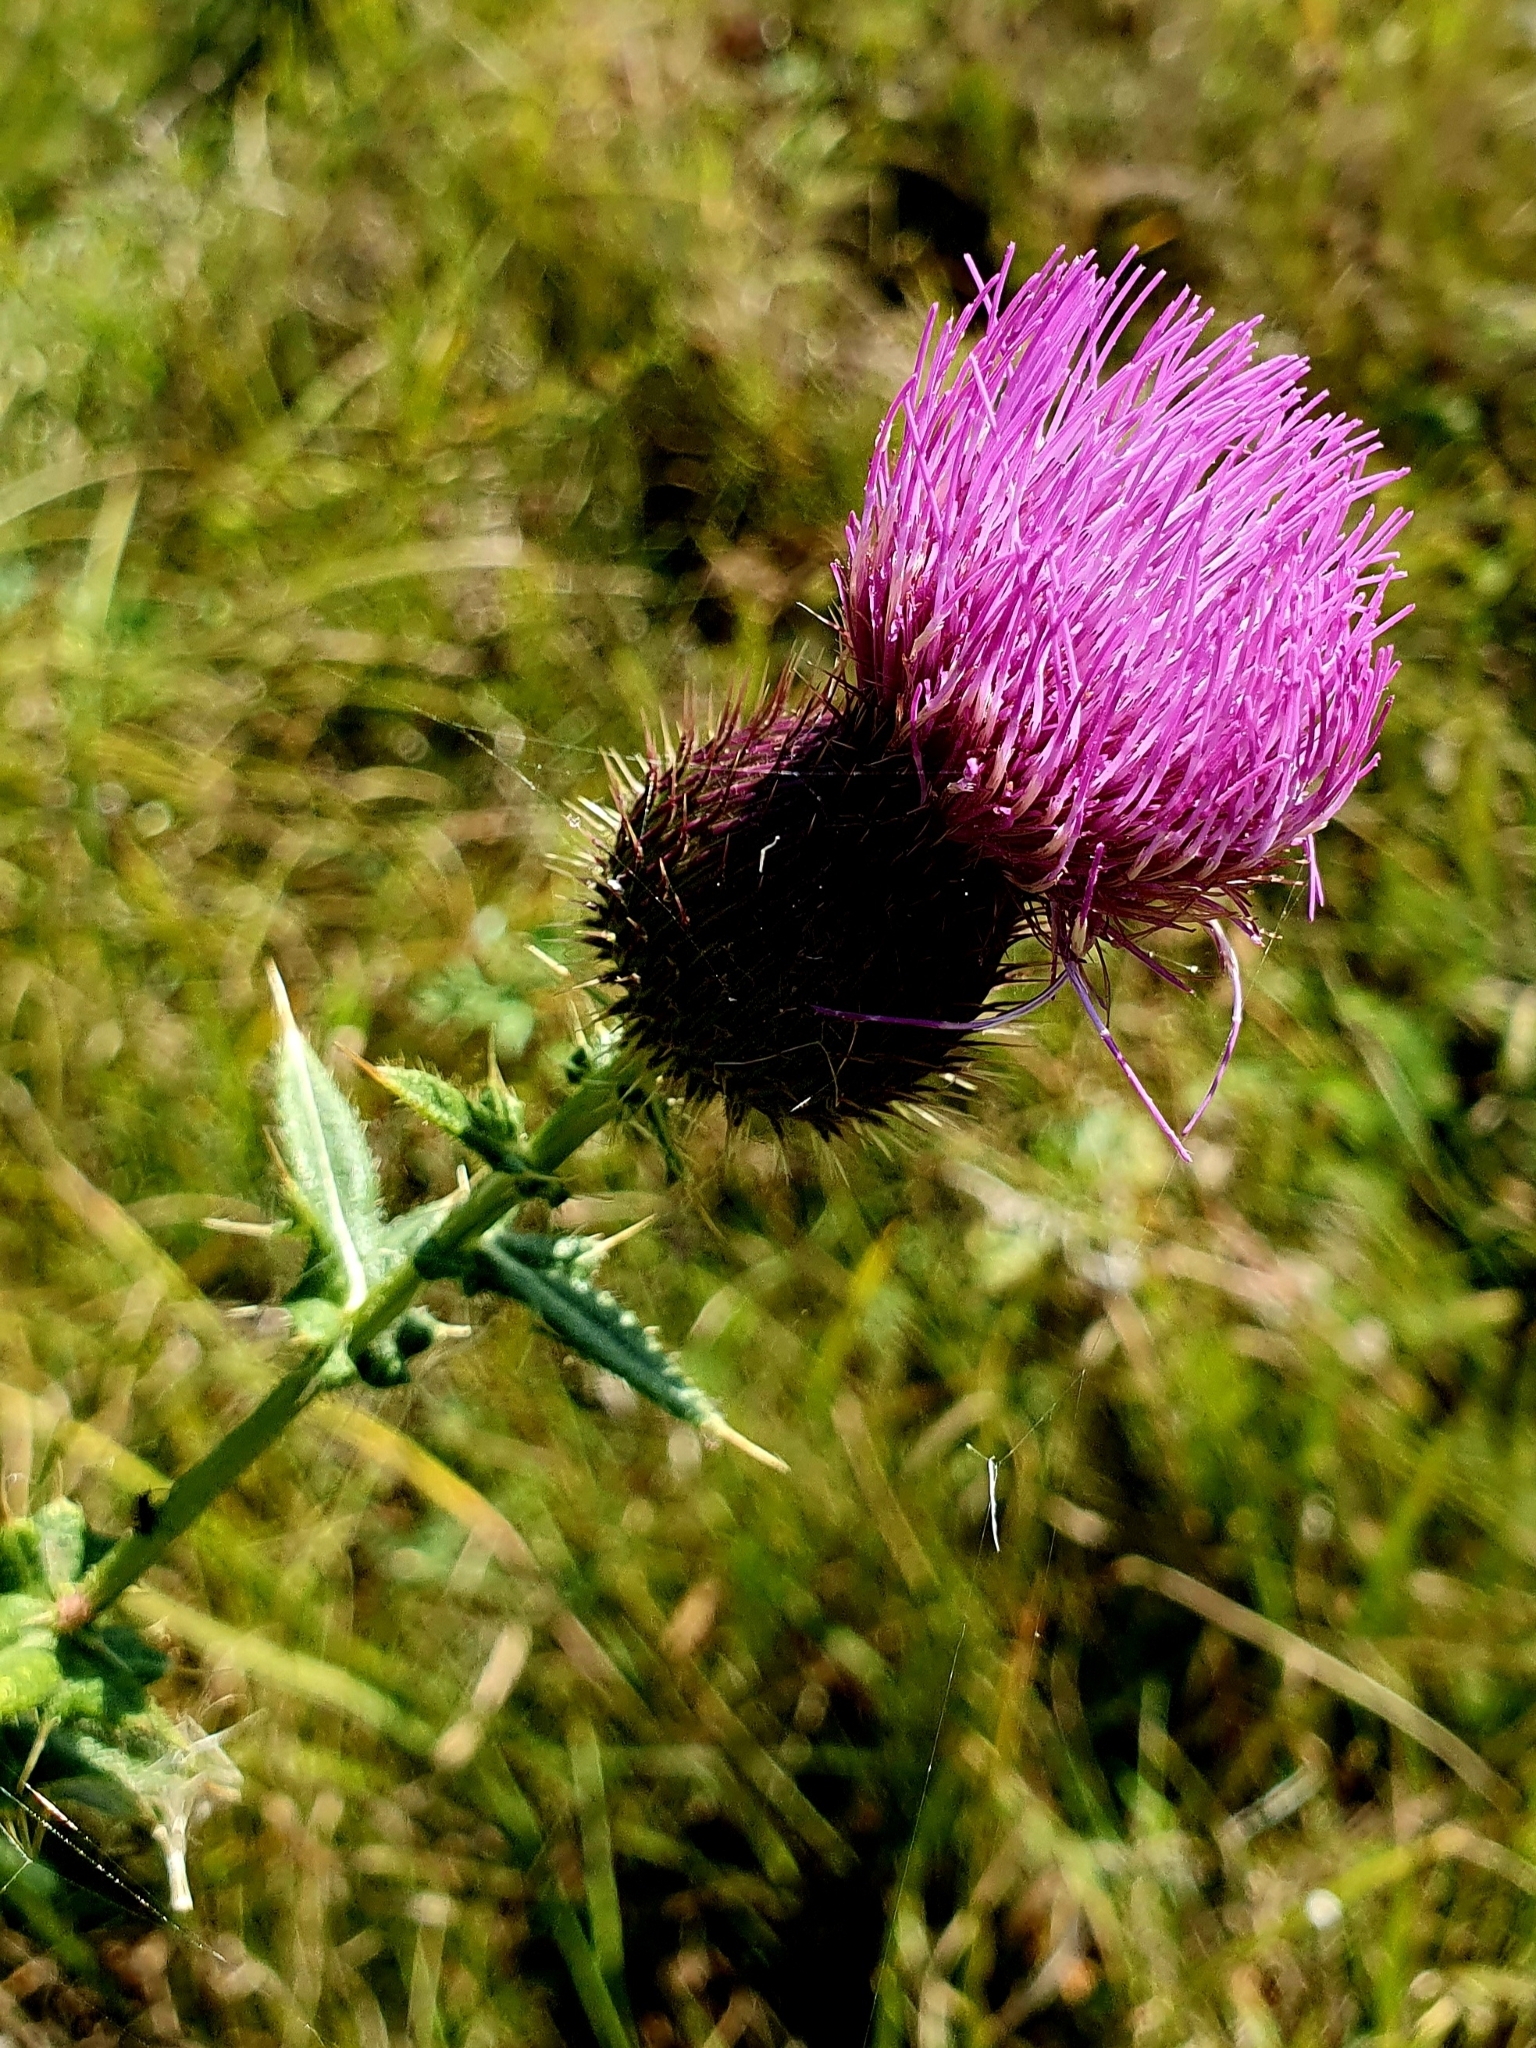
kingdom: Plantae
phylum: Tracheophyta
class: Magnoliopsida
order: Asterales
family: Asteraceae
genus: Cirsium
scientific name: Cirsium serrulatum
